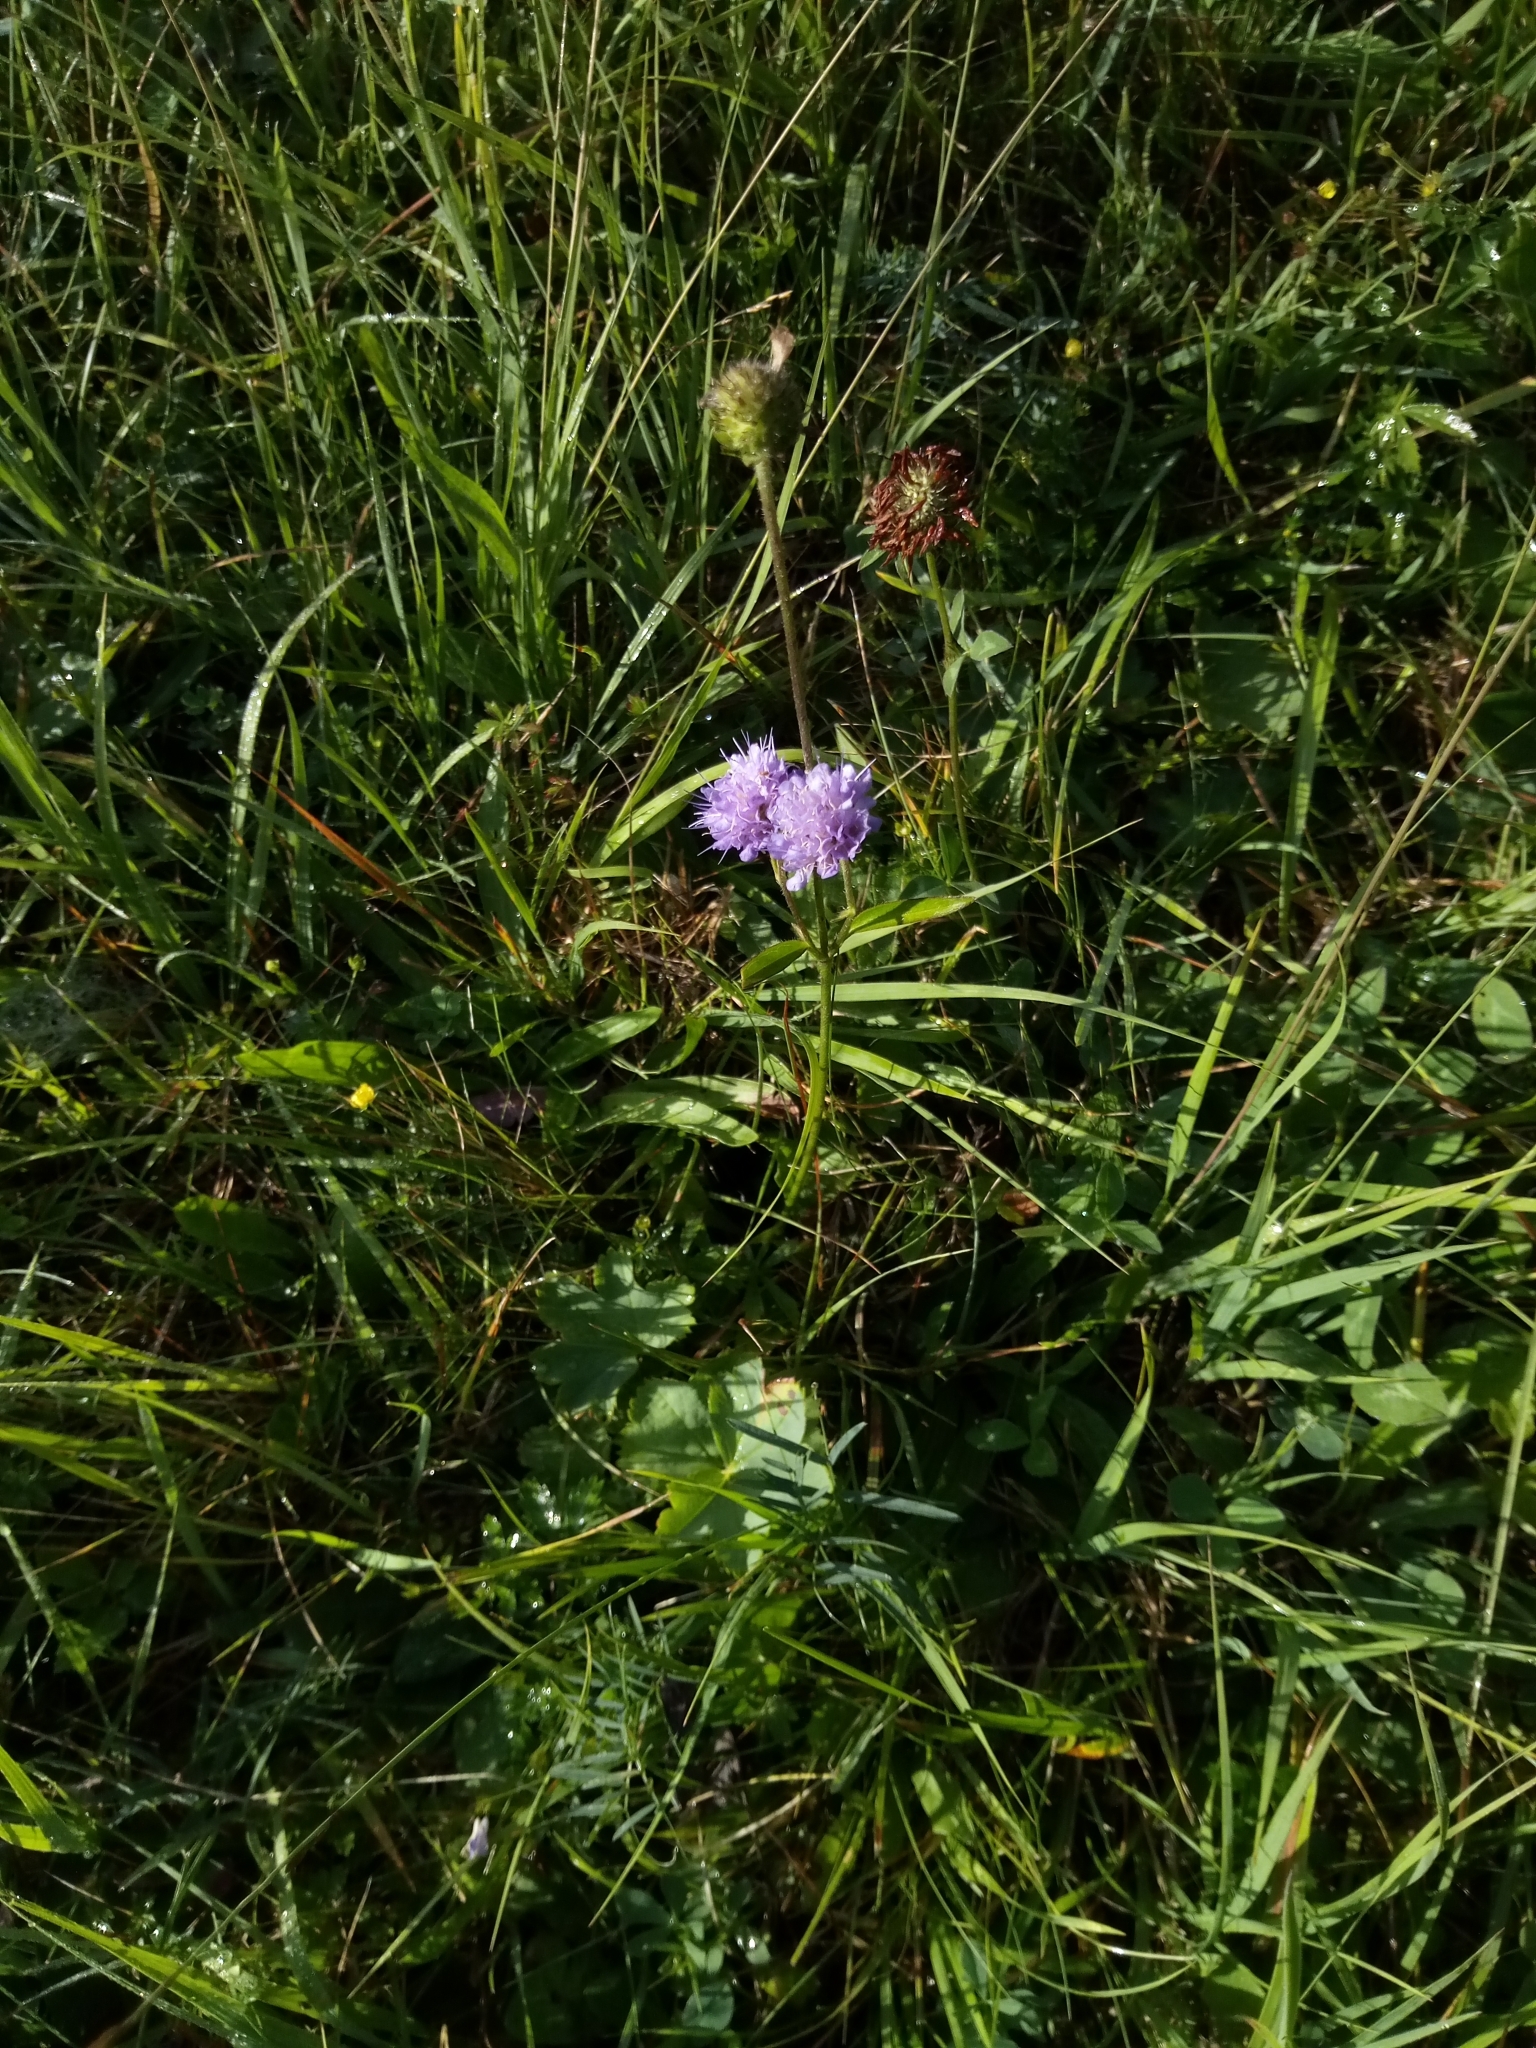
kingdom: Plantae
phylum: Tracheophyta
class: Magnoliopsida
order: Dipsacales
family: Caprifoliaceae
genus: Succisa
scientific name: Succisa pratensis
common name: Devil's-bit
